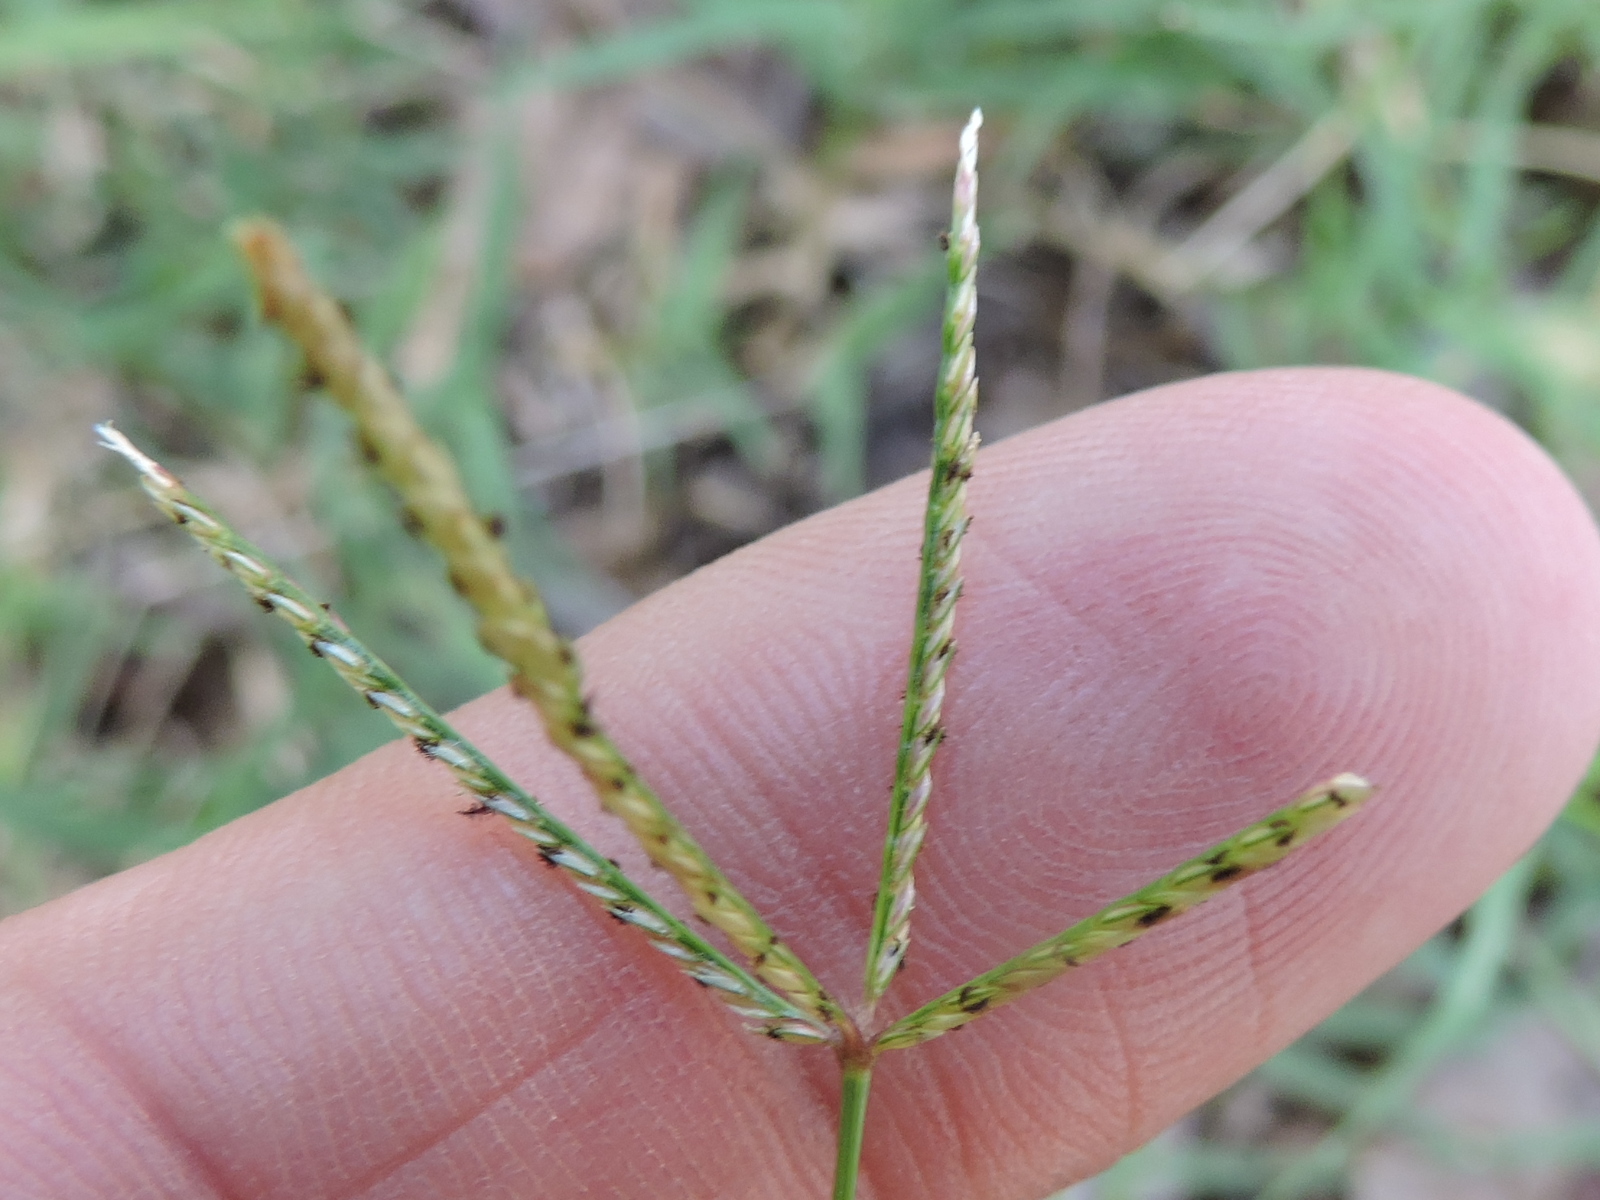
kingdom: Plantae
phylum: Tracheophyta
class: Liliopsida
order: Poales
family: Poaceae
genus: Cynodon
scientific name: Cynodon dactylon
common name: Bermuda grass
